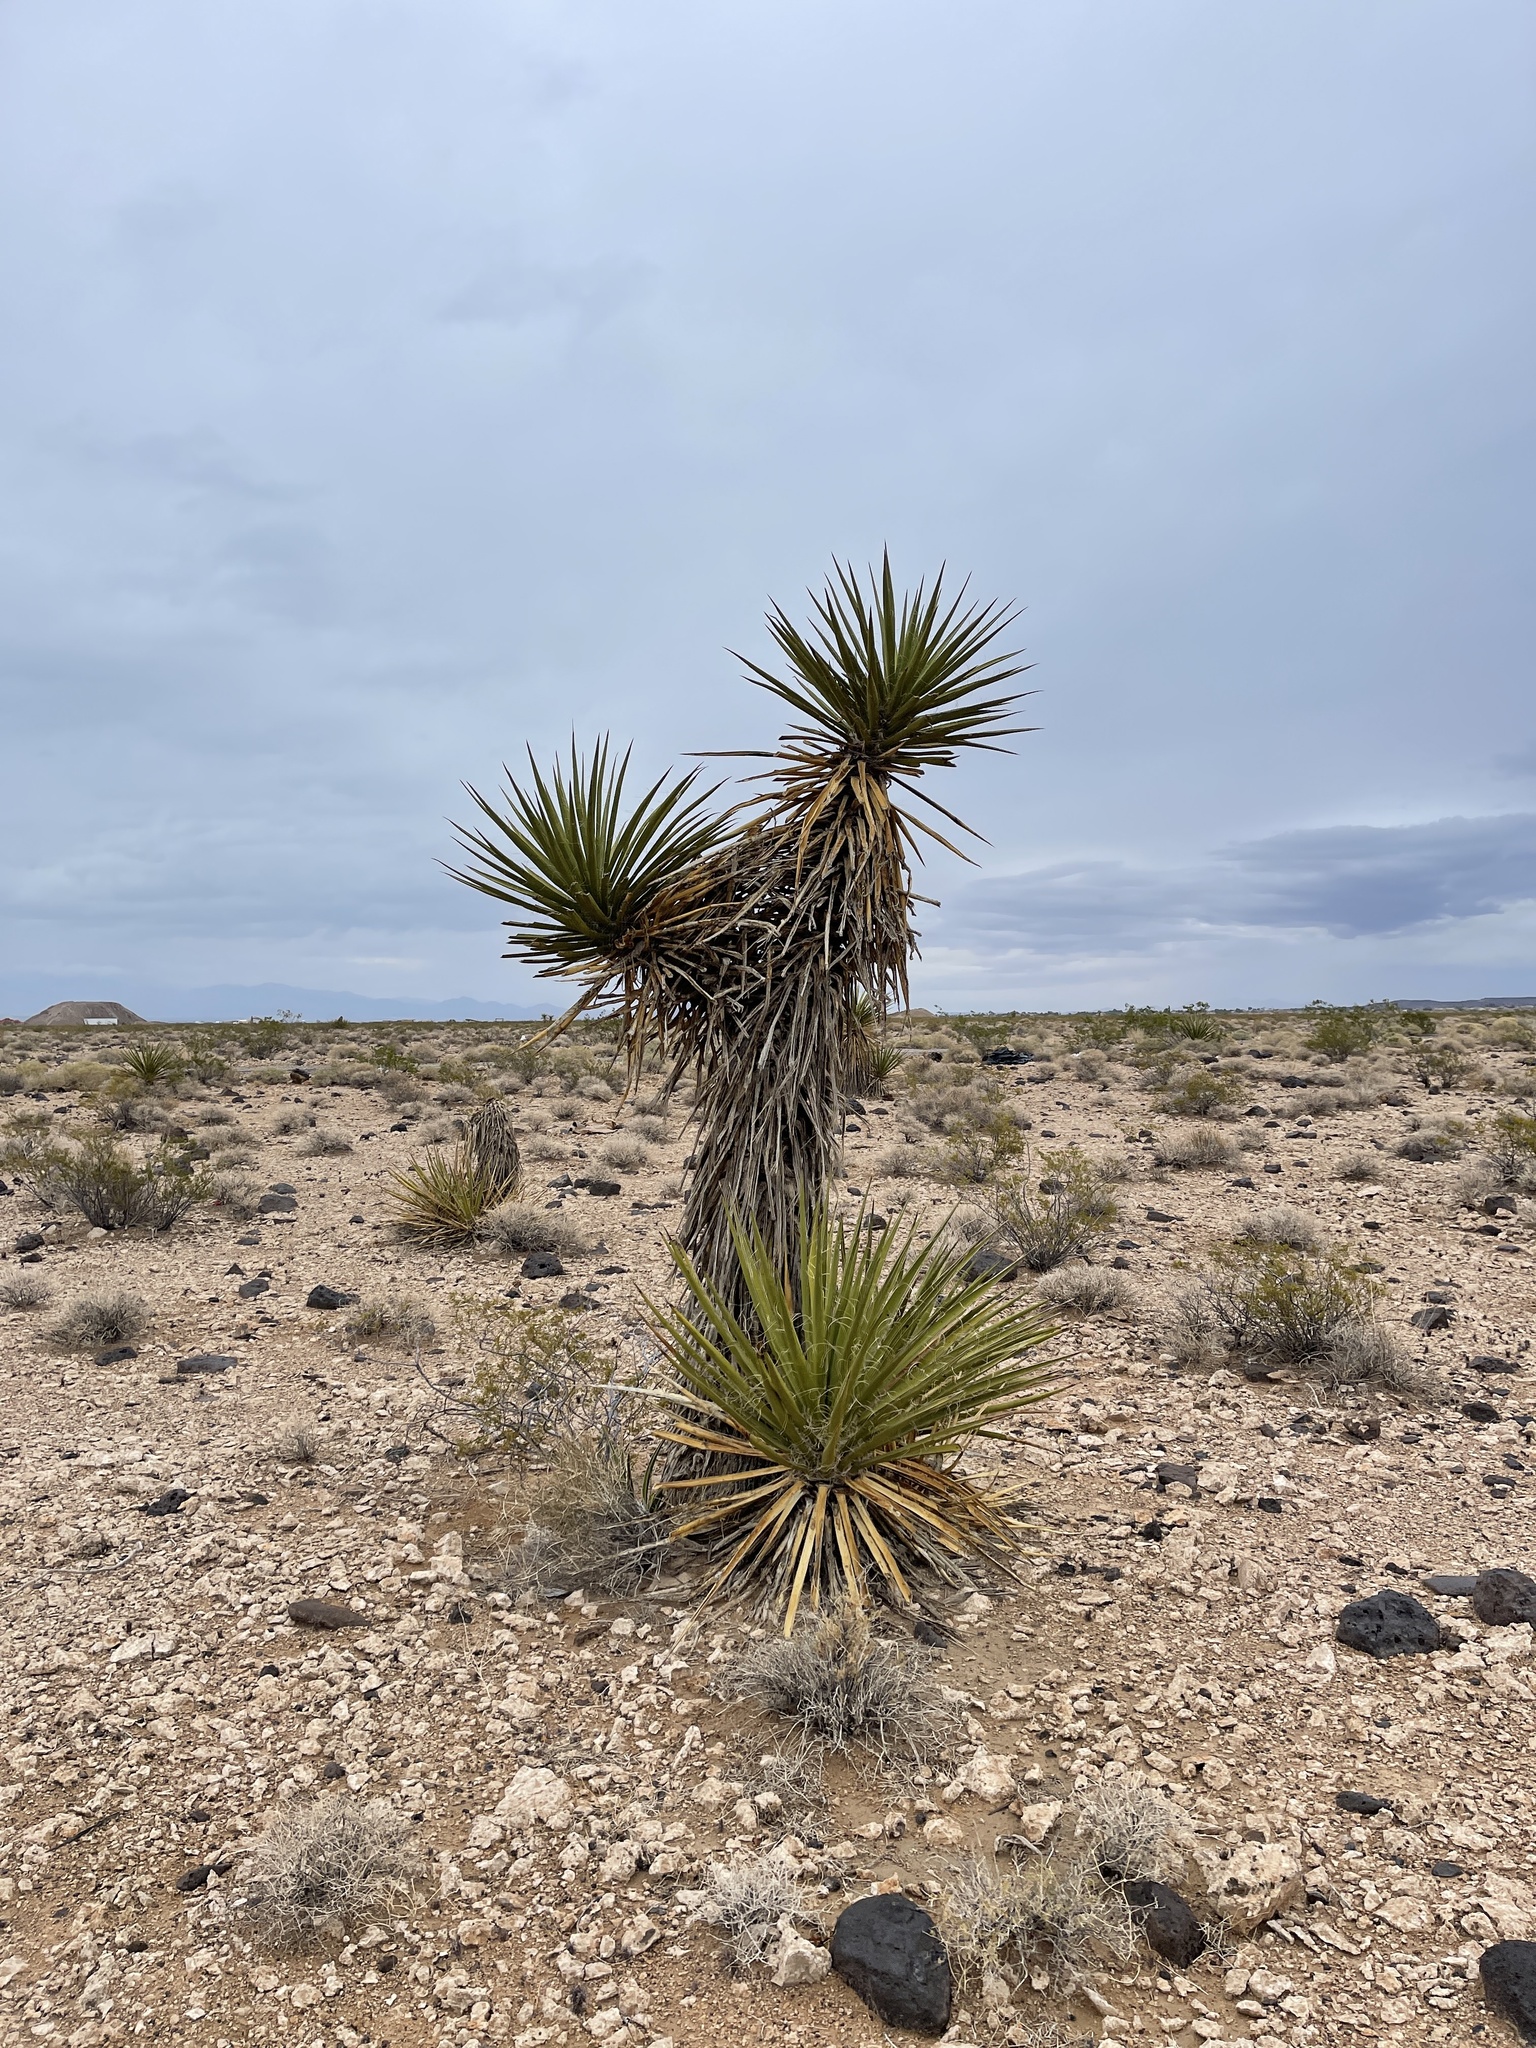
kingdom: Plantae
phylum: Tracheophyta
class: Liliopsida
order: Asparagales
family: Asparagaceae
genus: Yucca
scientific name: Yucca schidigera
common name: Mojave yucca
